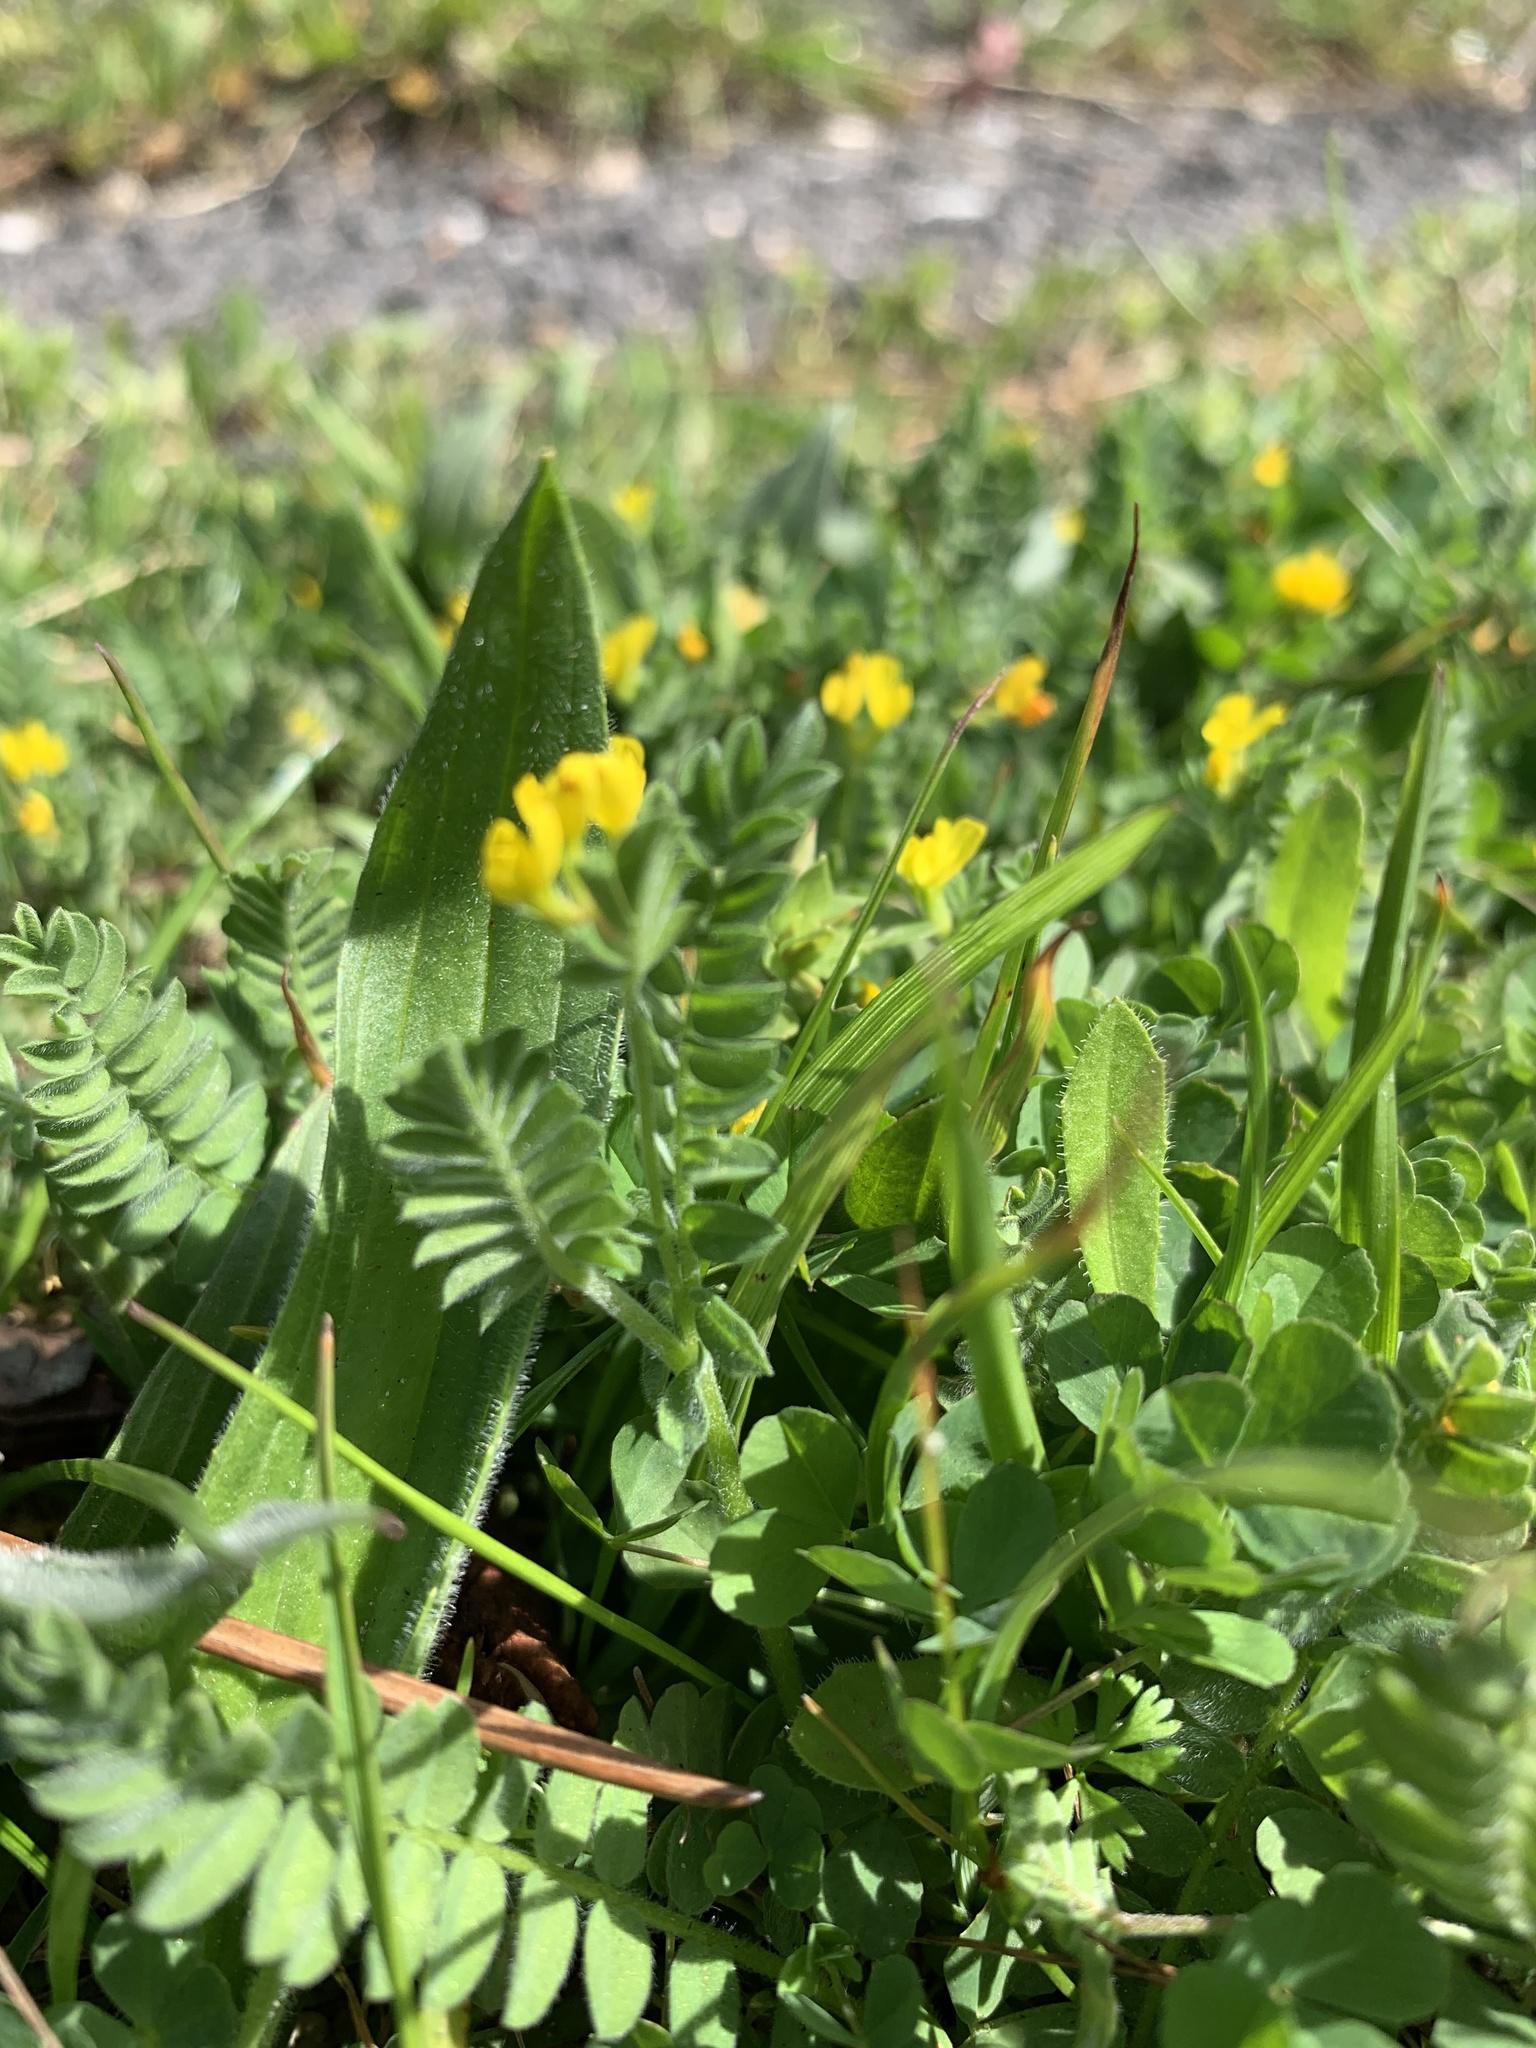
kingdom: Plantae
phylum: Tracheophyta
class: Magnoliopsida
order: Fabales
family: Fabaceae
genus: Ornithopus
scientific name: Ornithopus compressus
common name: Yellow serradella
